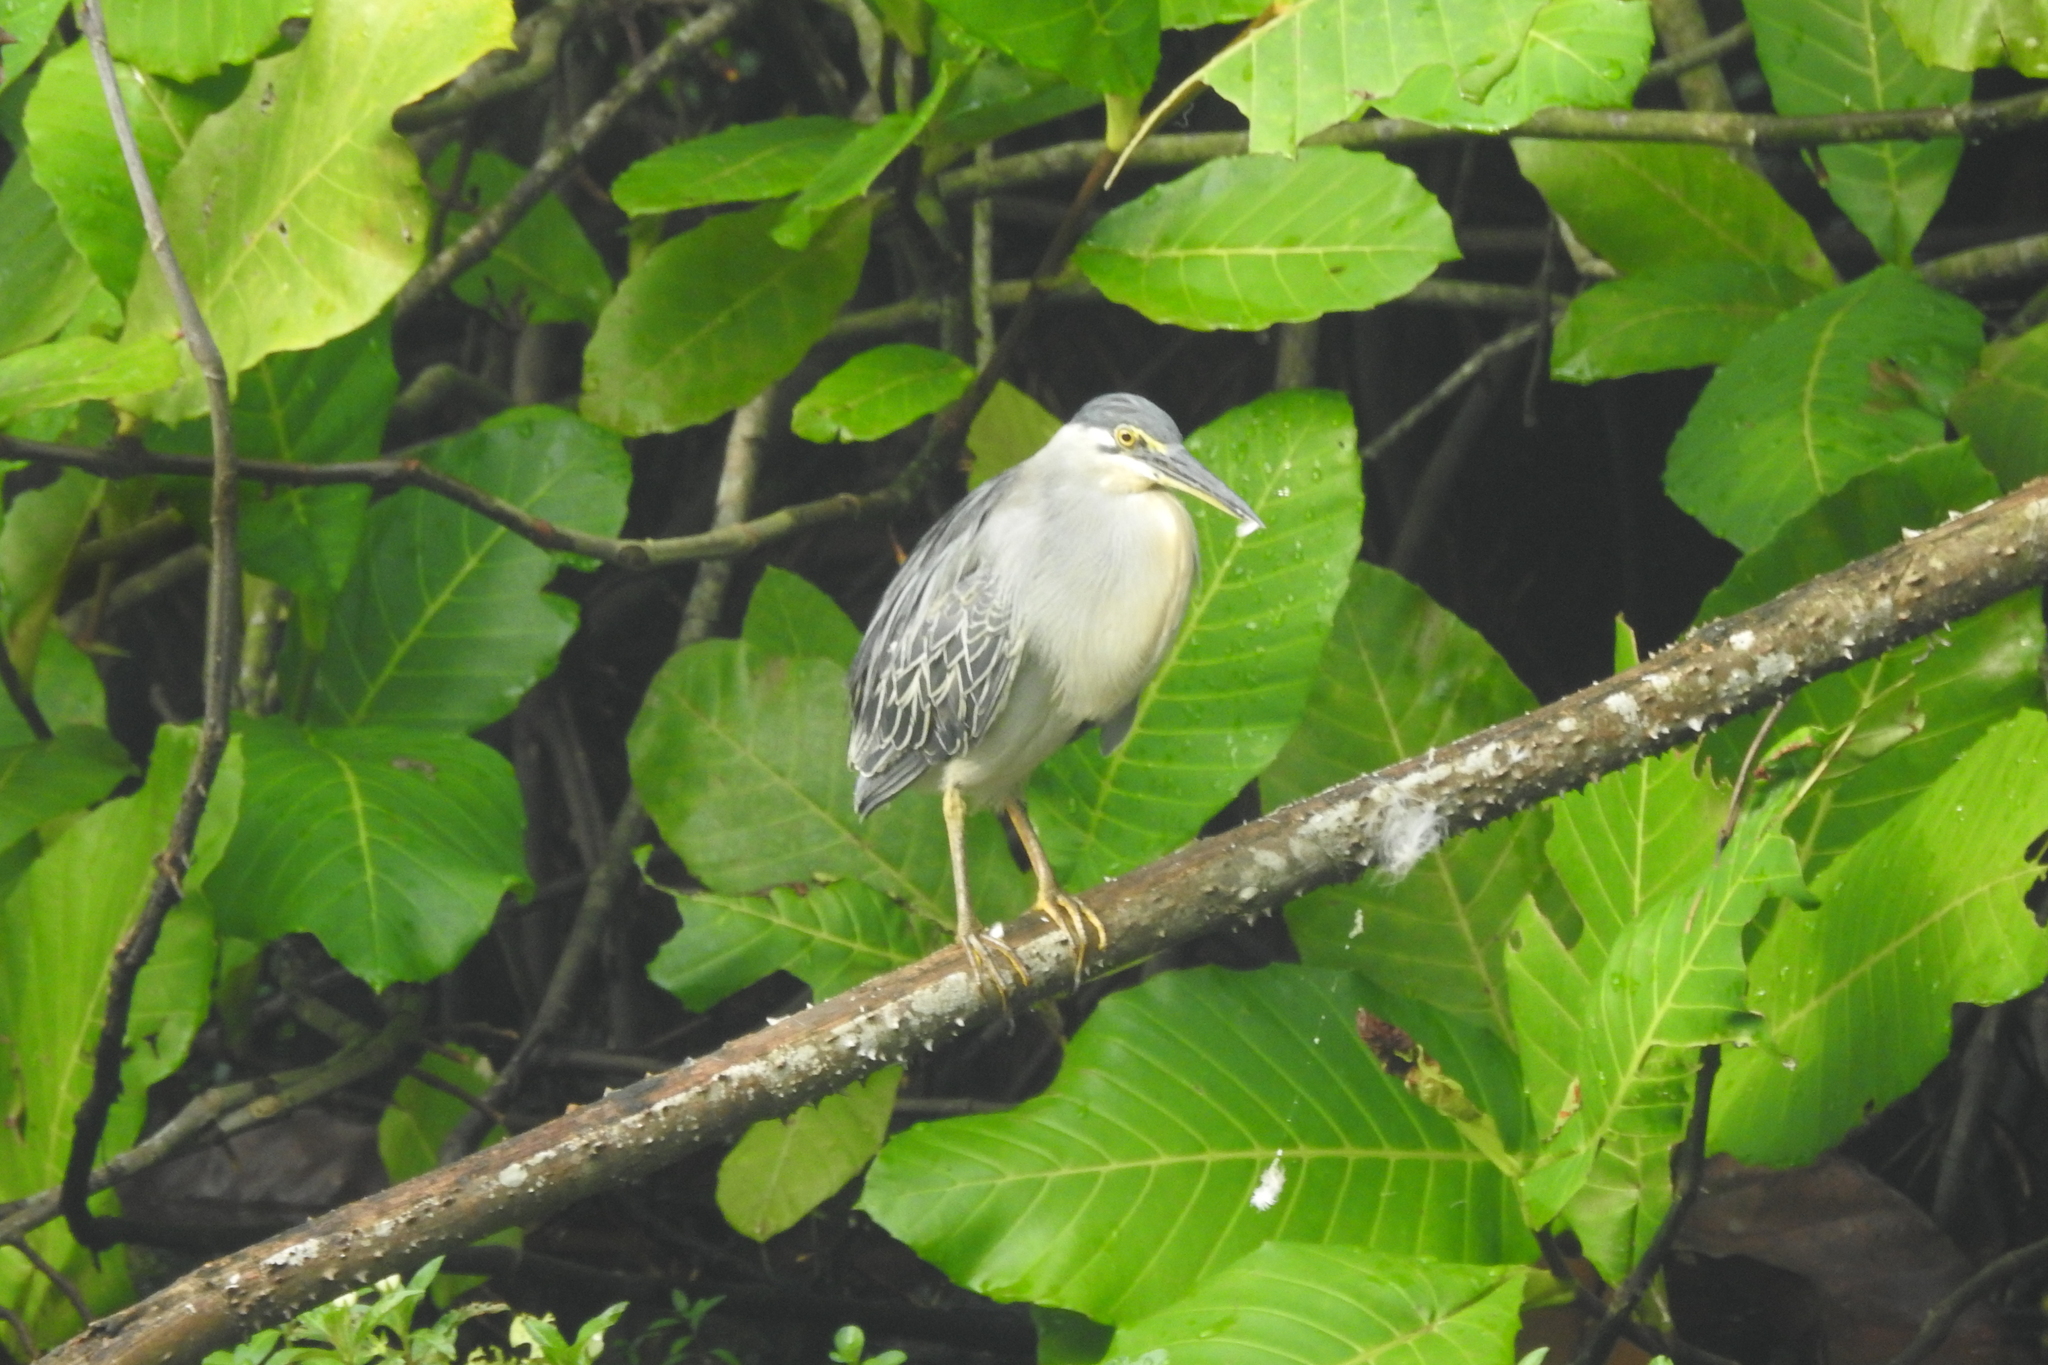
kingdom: Animalia
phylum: Chordata
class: Aves
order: Pelecaniformes
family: Ardeidae
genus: Butorides
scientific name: Butorides striata
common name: Striated heron
